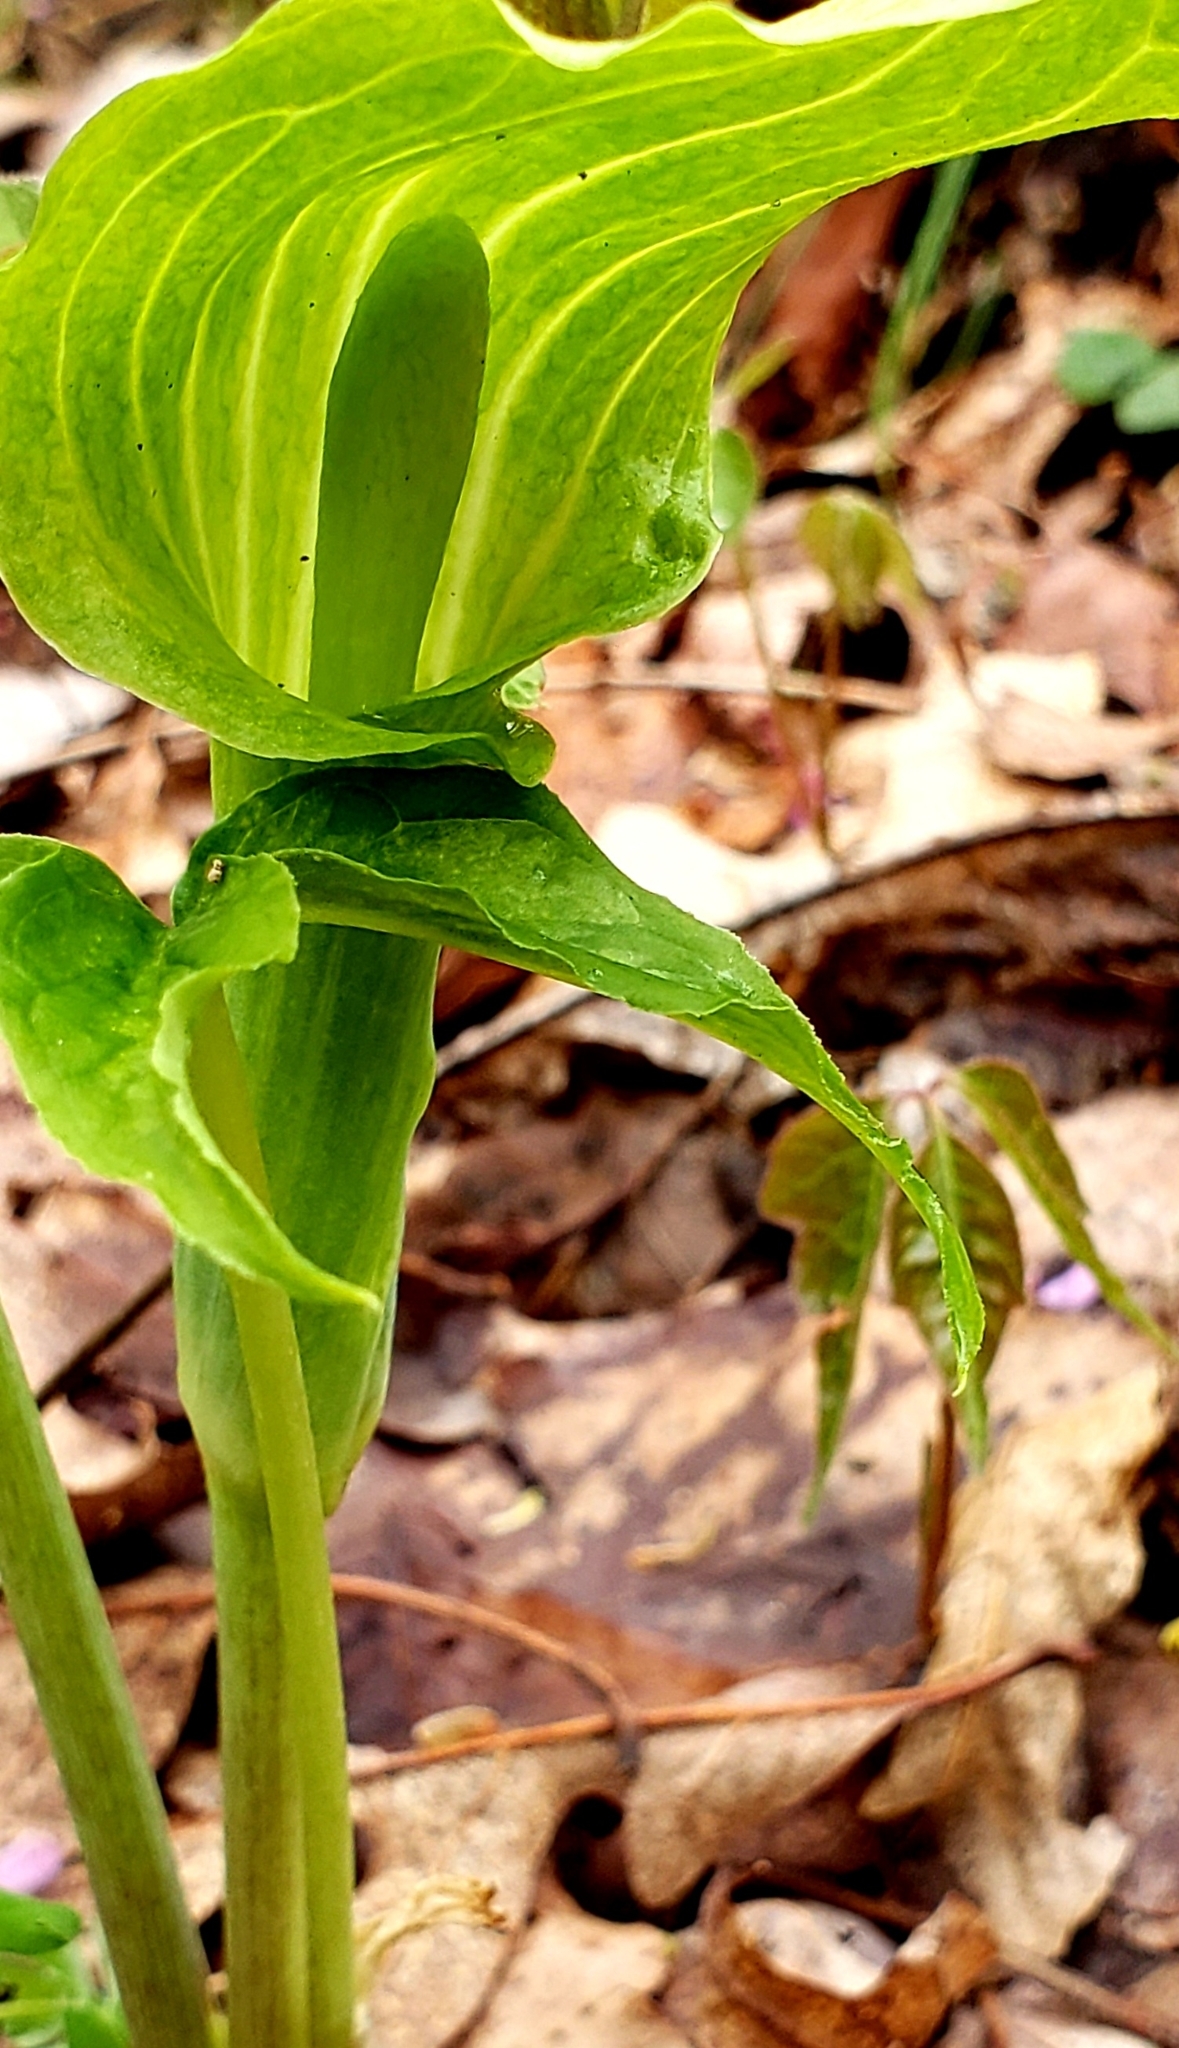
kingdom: Plantae
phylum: Tracheophyta
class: Liliopsida
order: Alismatales
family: Araceae
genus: Arisaema
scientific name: Arisaema triphyllum
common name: Jack-in-the-pulpit
